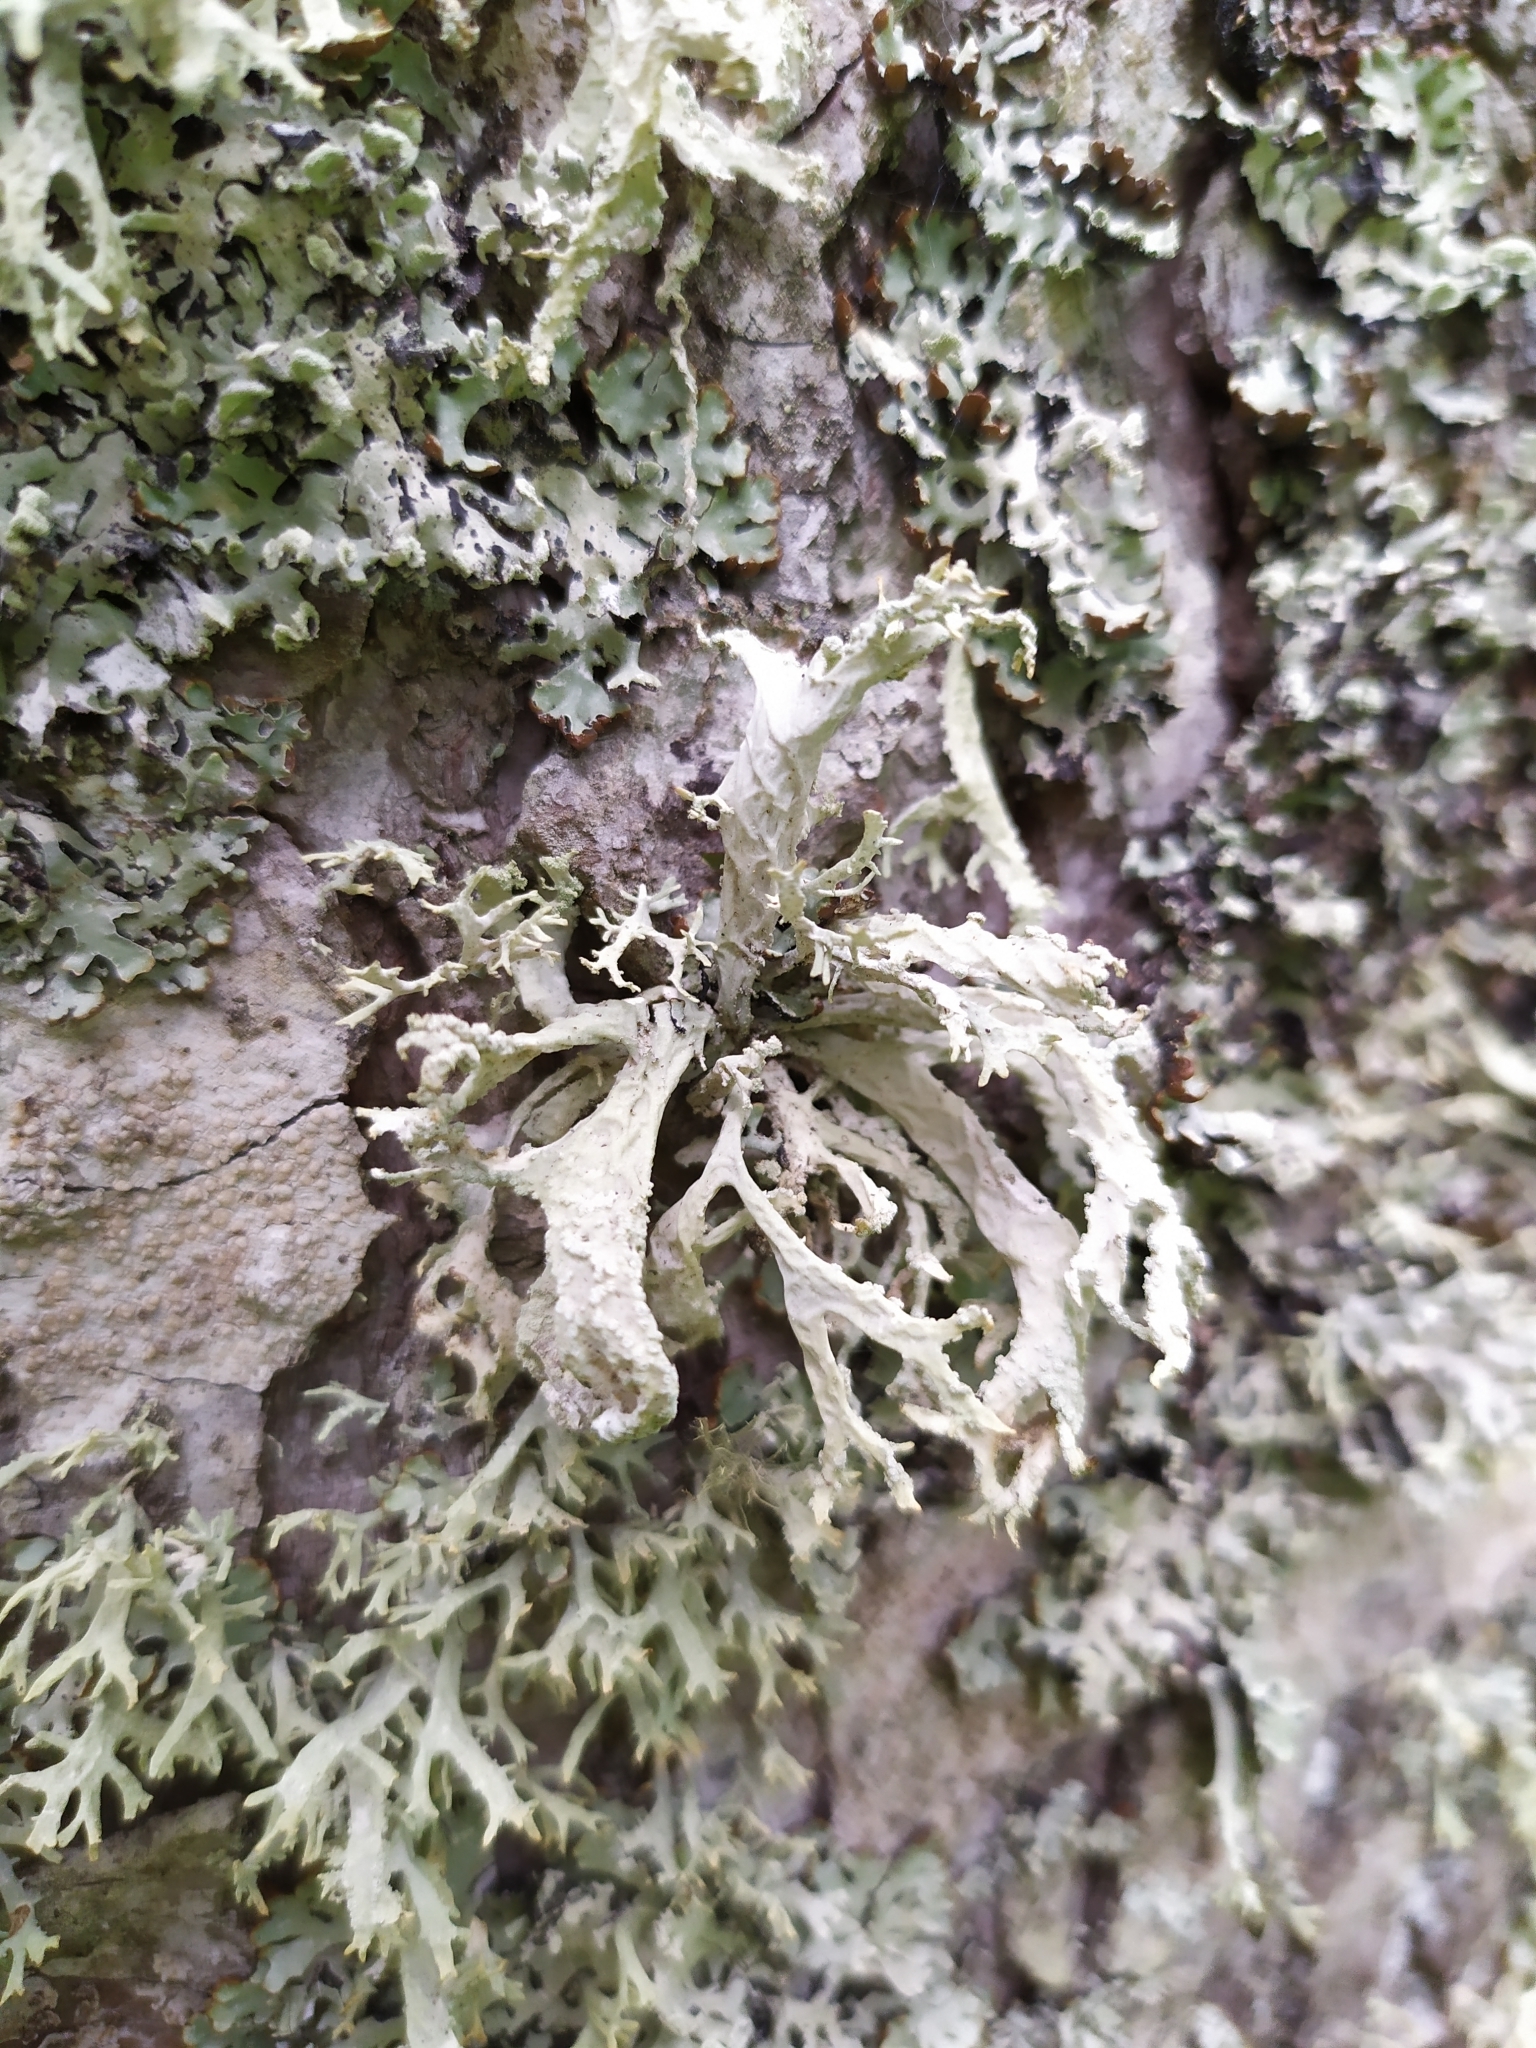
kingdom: Fungi
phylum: Ascomycota
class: Lecanoromycetes
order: Lecanorales
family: Parmeliaceae
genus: Evernia
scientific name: Evernia prunastri
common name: Oak moss
